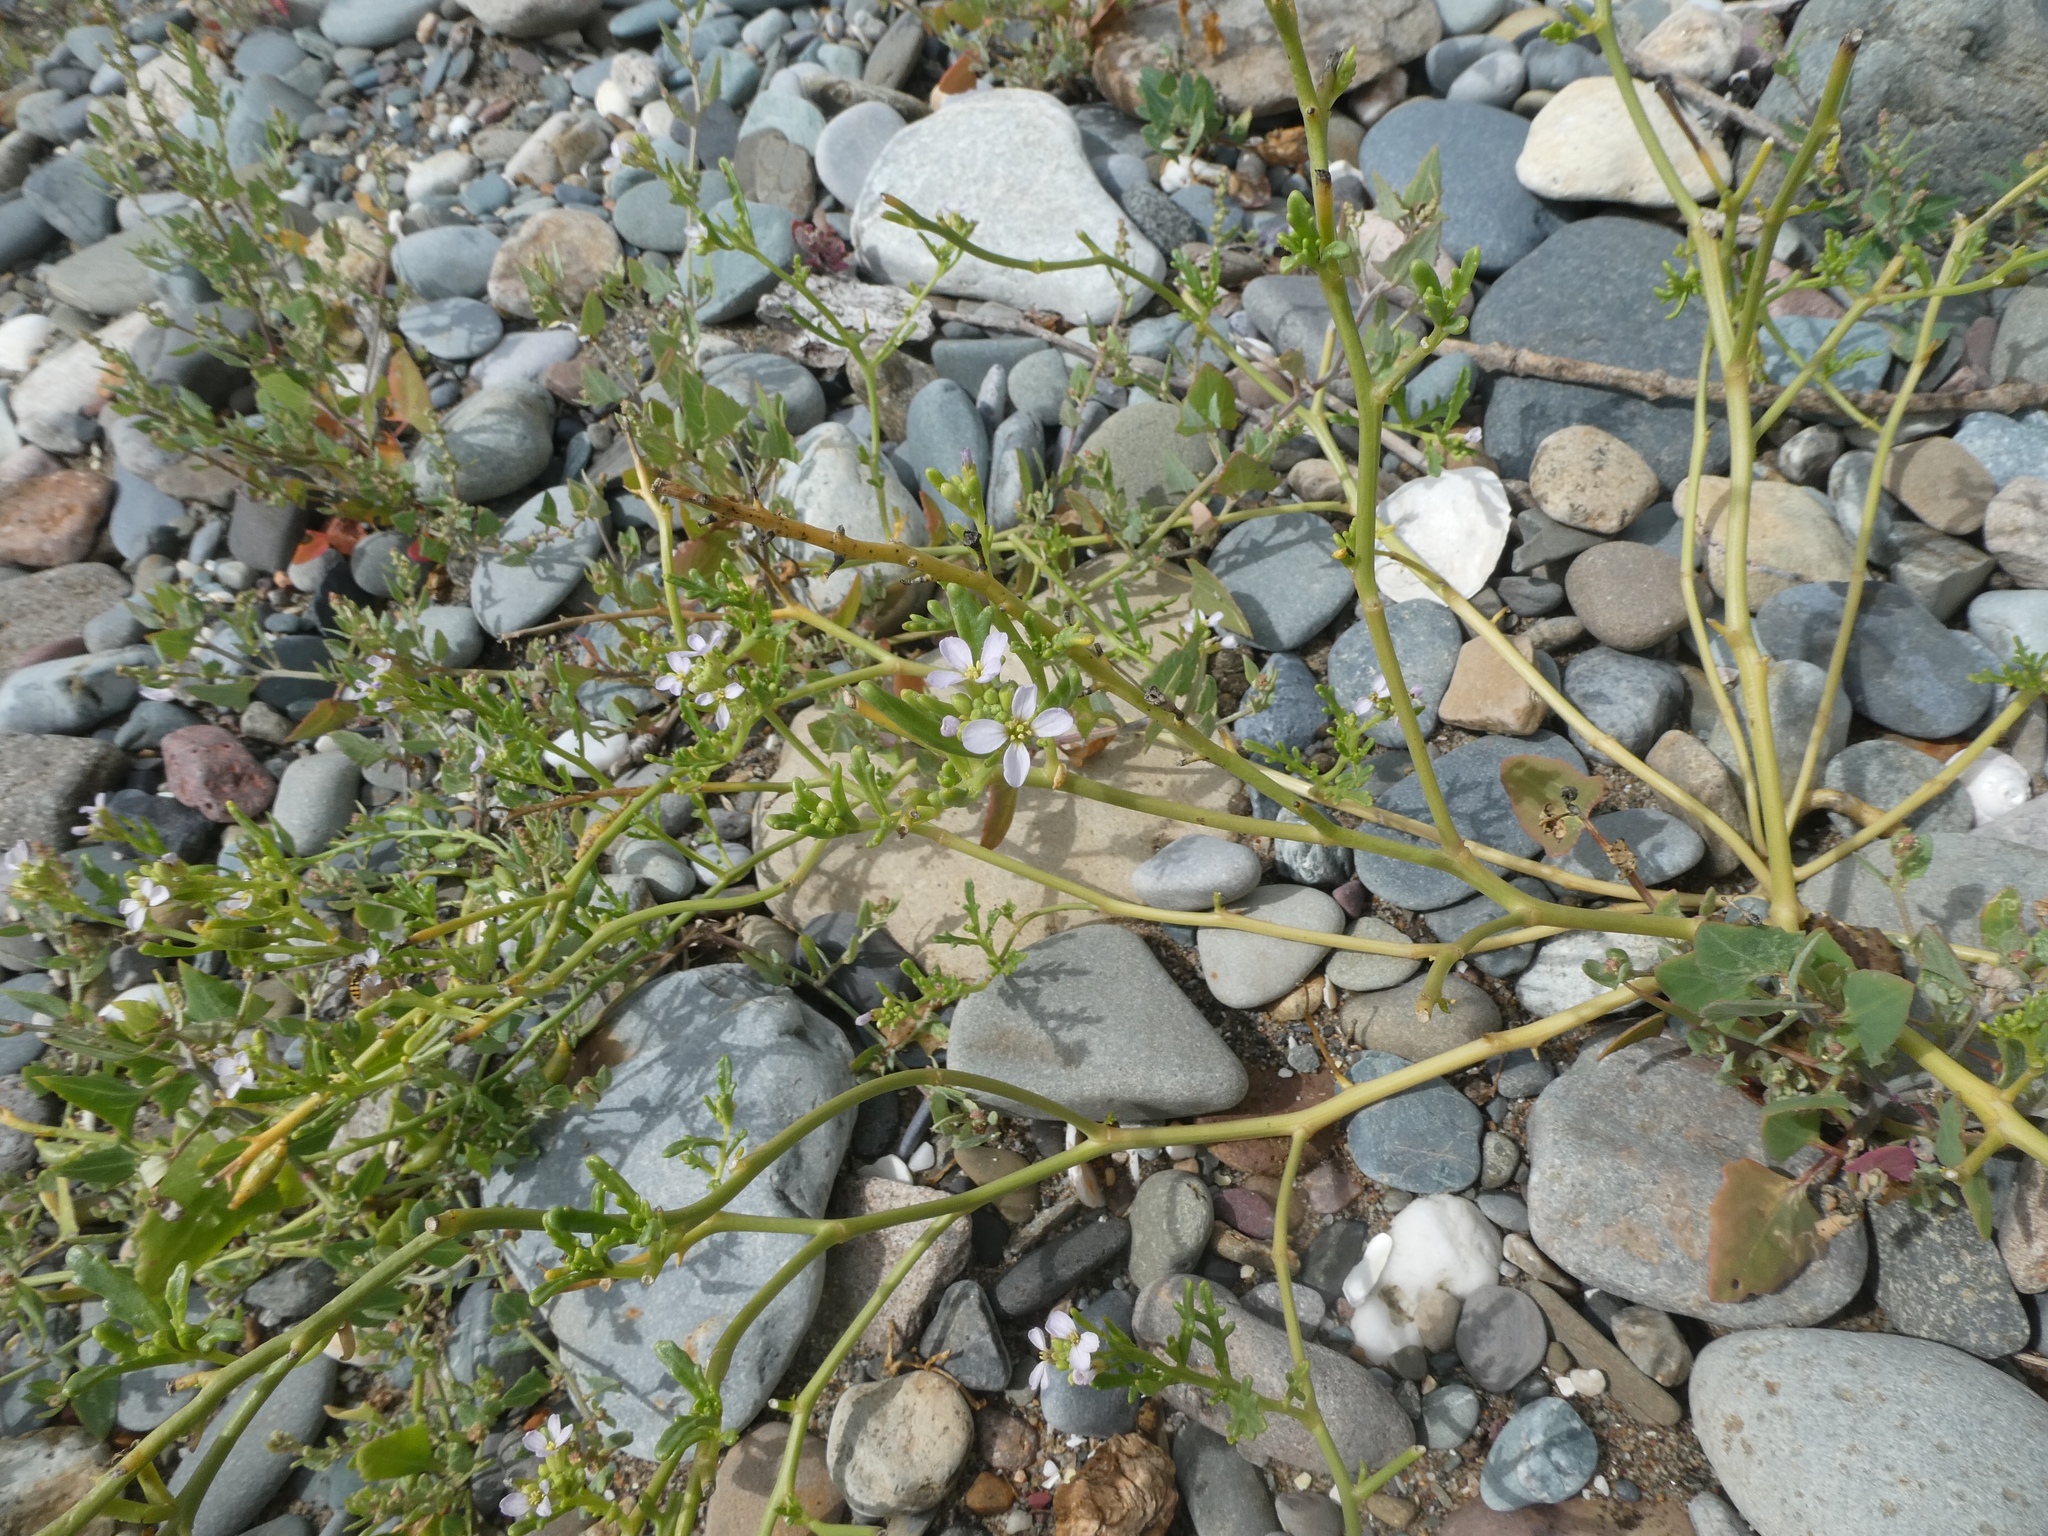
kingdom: Plantae
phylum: Tracheophyta
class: Magnoliopsida
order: Brassicales
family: Brassicaceae
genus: Cakile
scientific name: Cakile maritima
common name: Sea rocket
